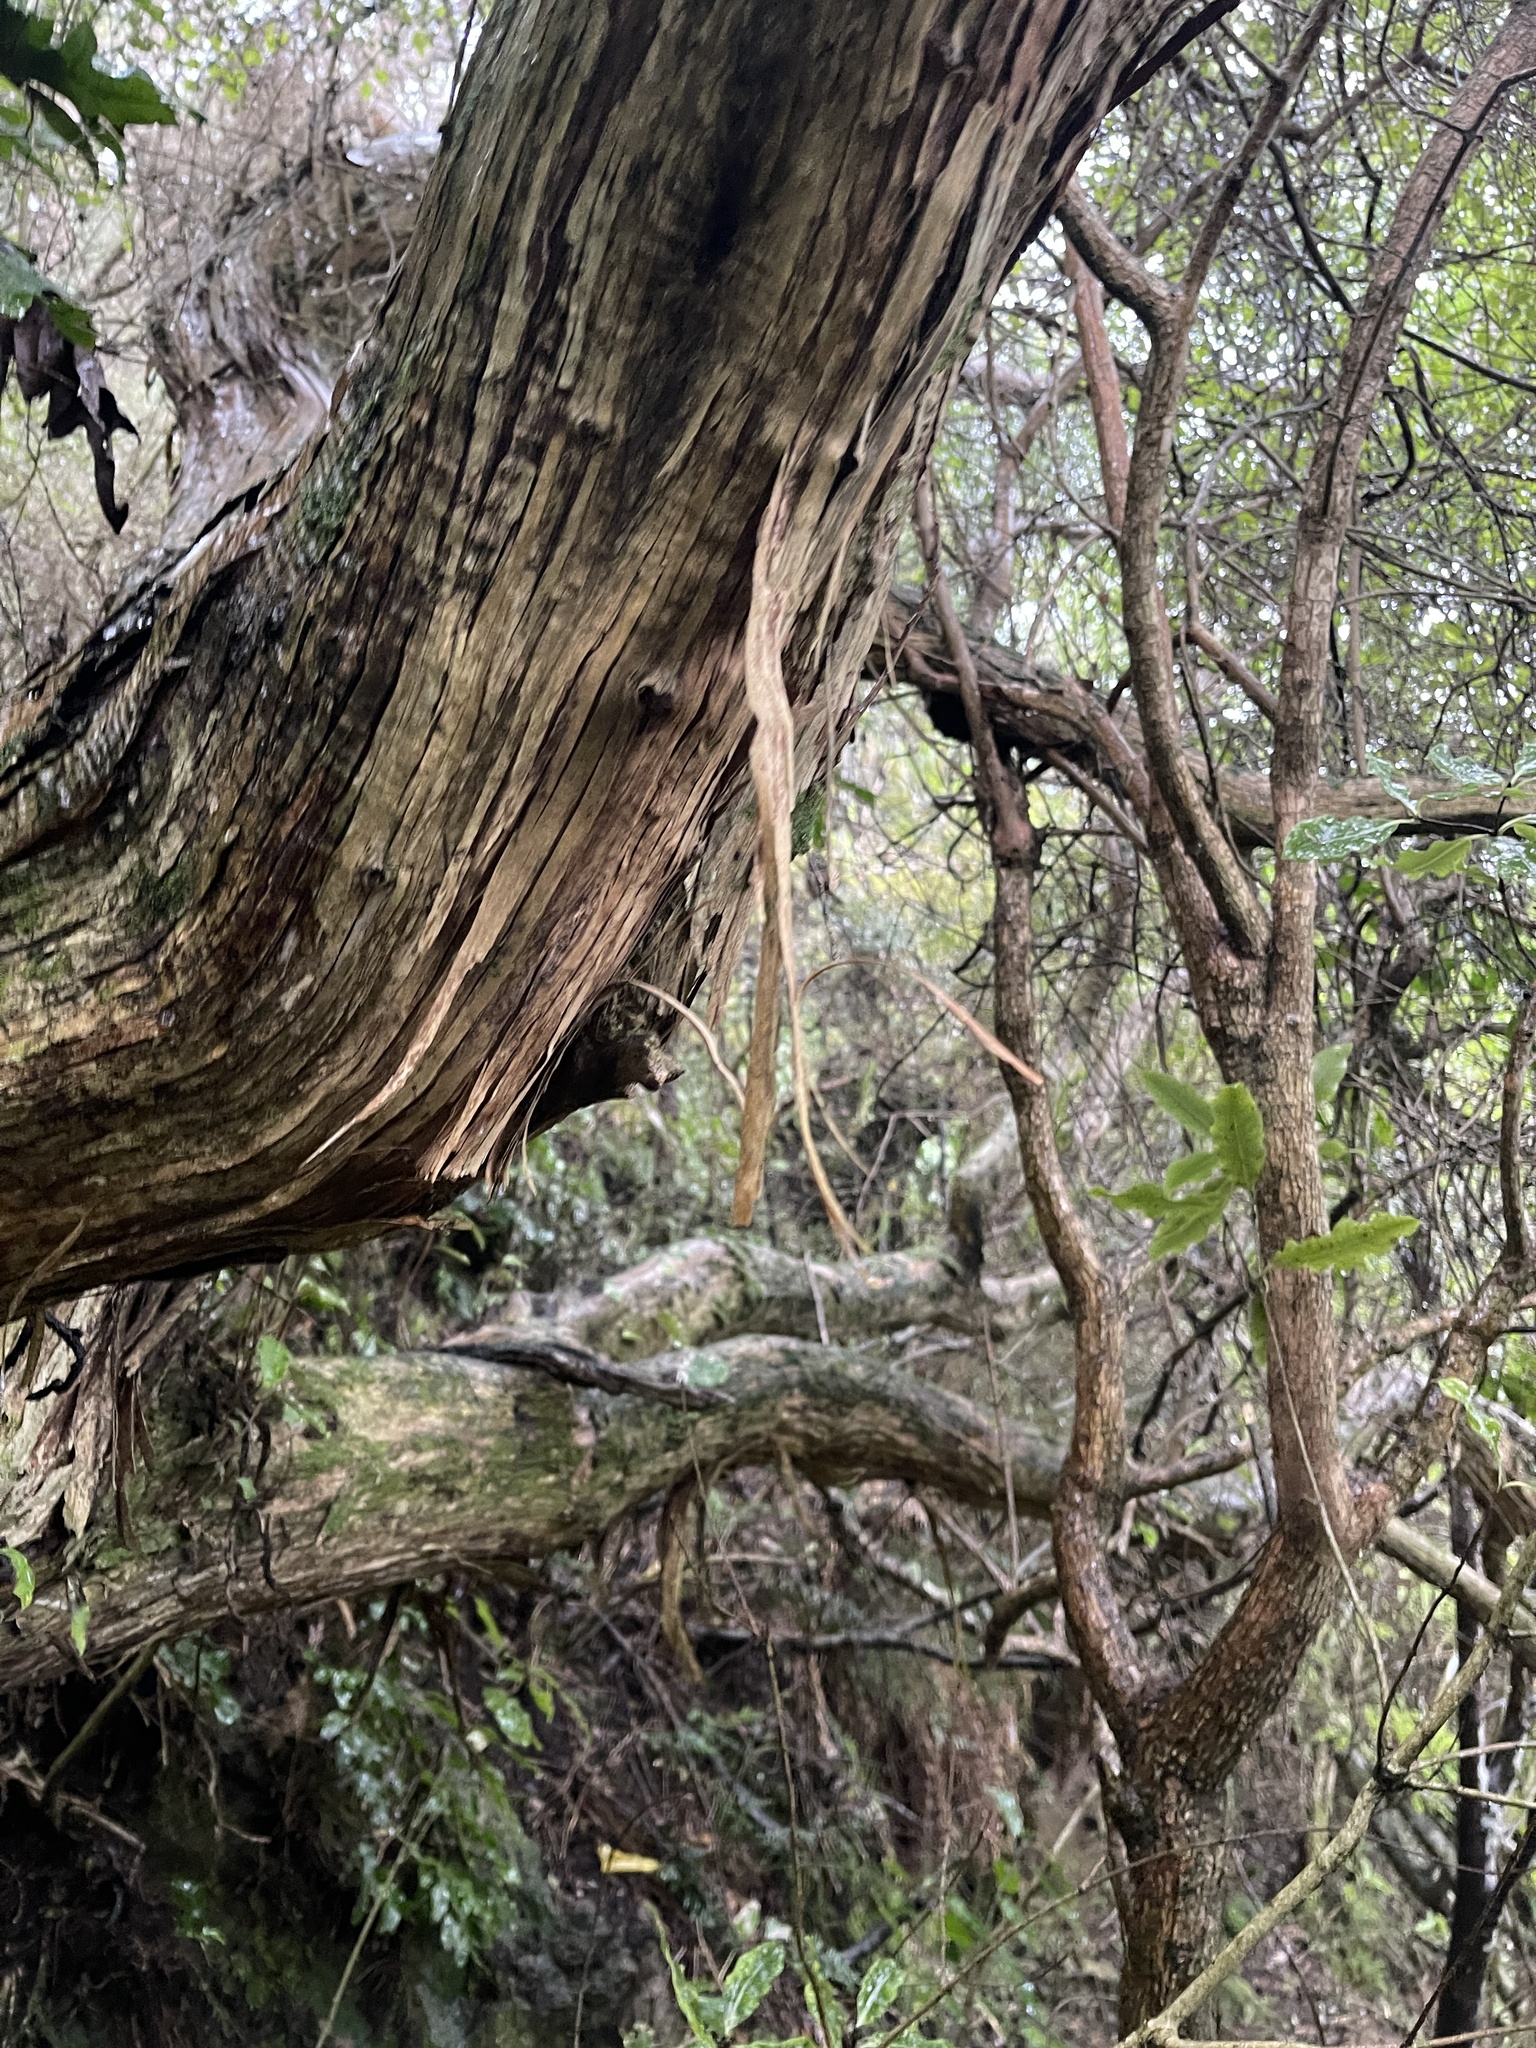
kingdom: Plantae
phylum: Tracheophyta
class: Magnoliopsida
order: Asterales
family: Asteraceae
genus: Olearia
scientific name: Olearia paniculata
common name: Akiraho
